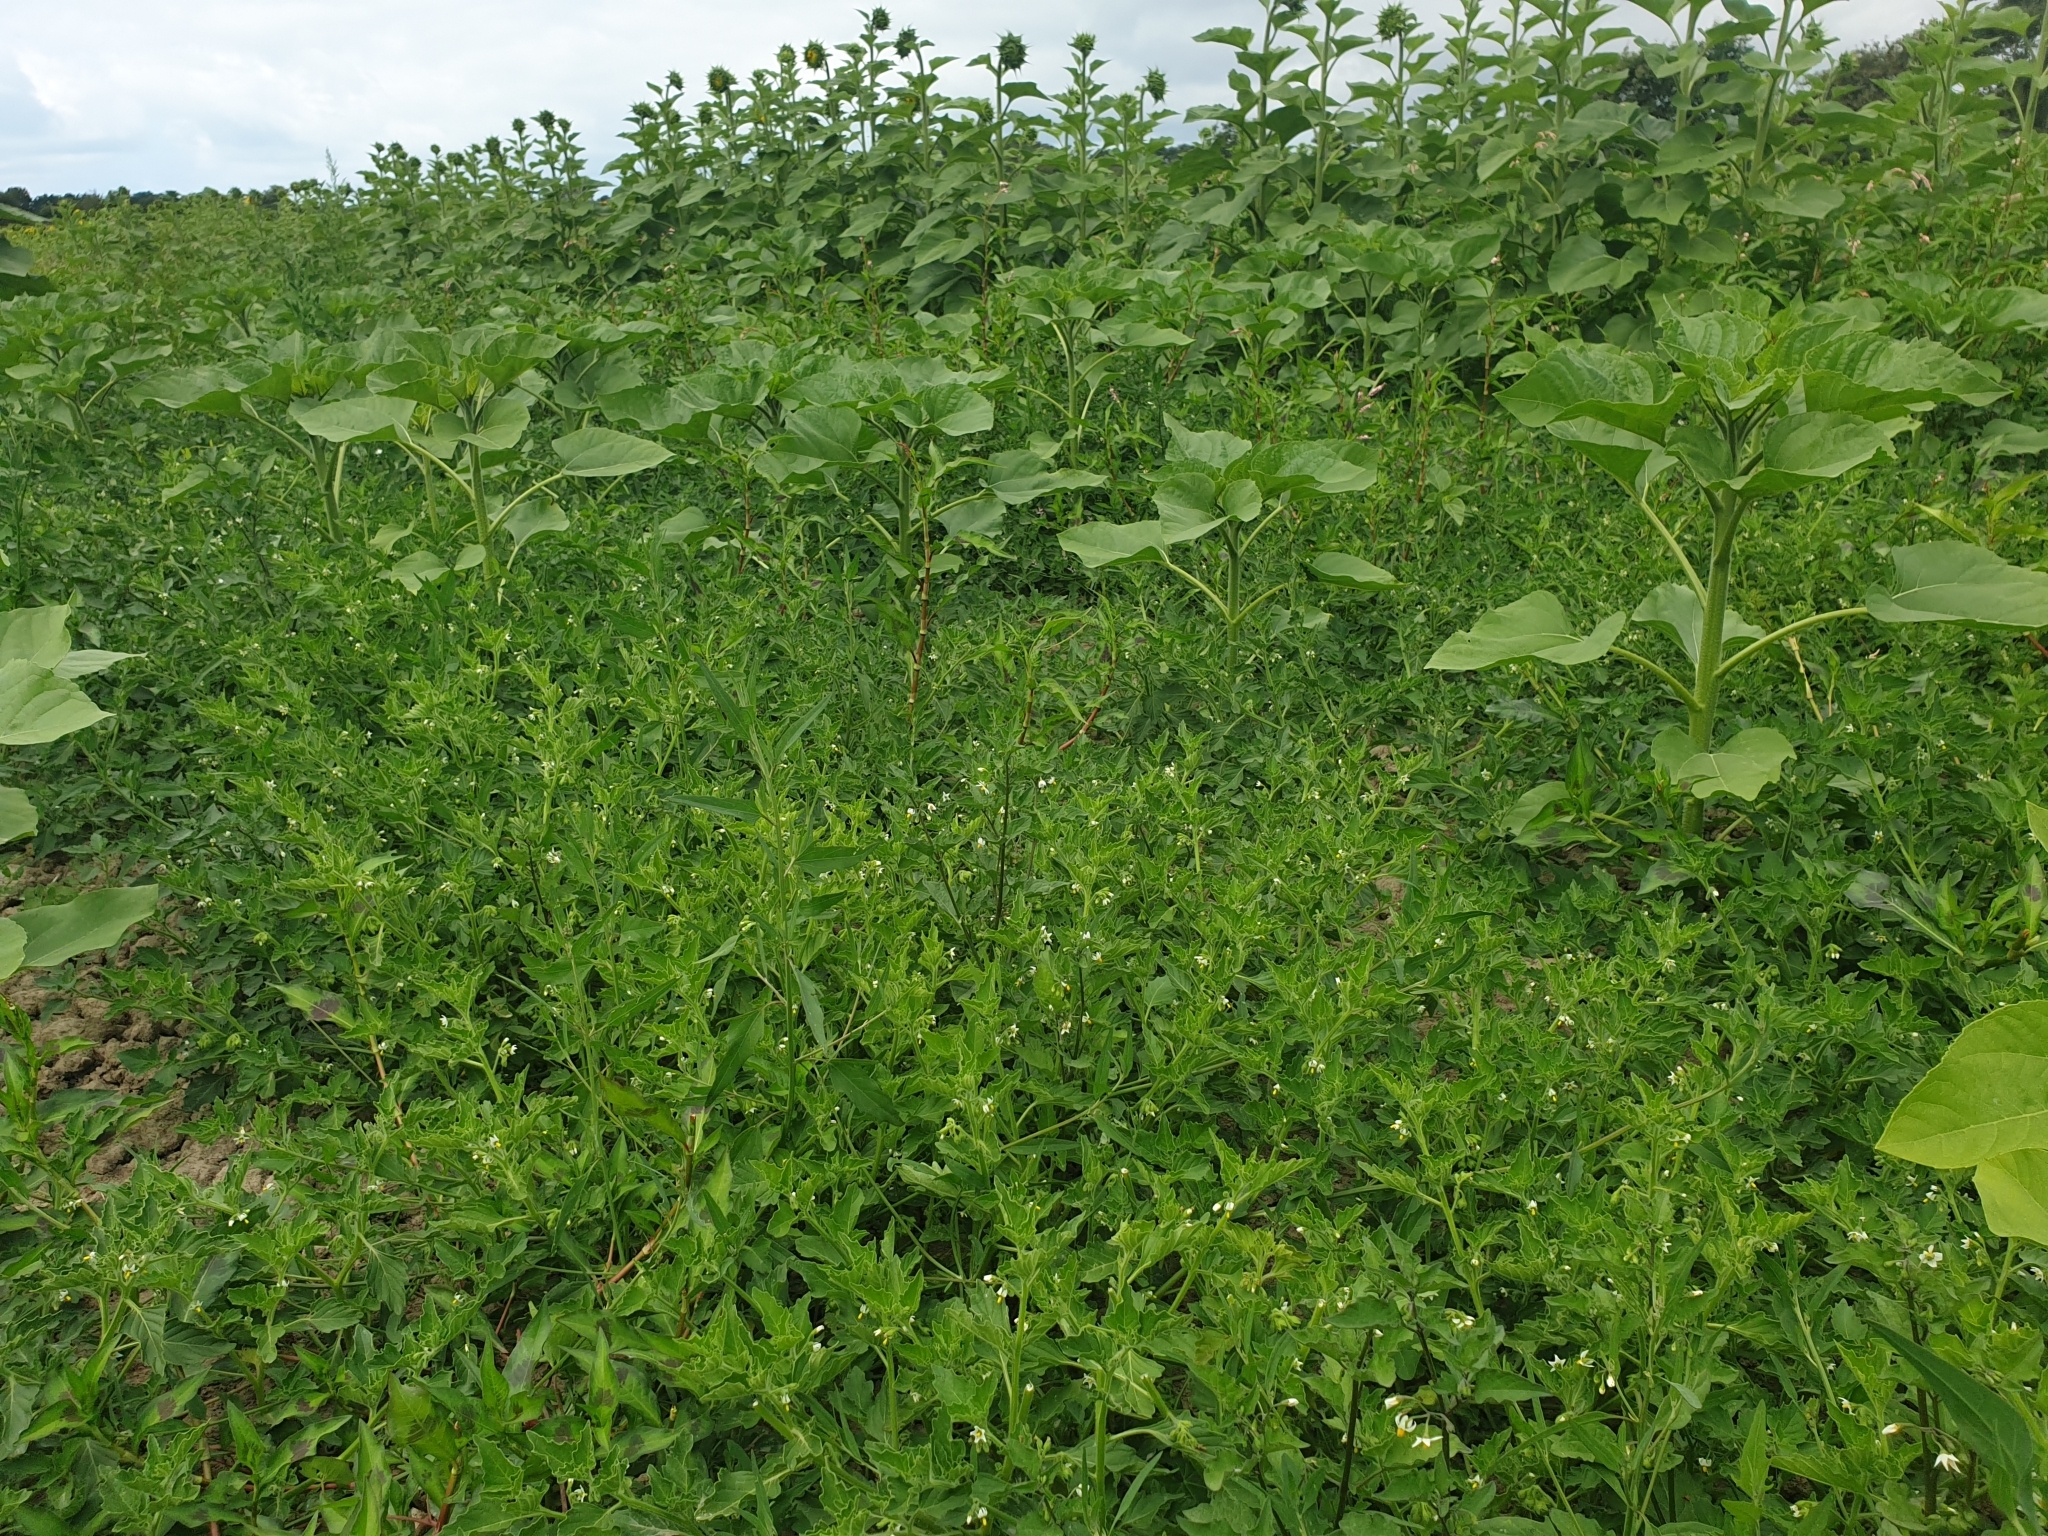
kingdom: Plantae
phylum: Tracheophyta
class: Magnoliopsida
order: Solanales
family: Solanaceae
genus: Solanum
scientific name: Solanum nitidibaccatum
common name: Hairy nightshade
